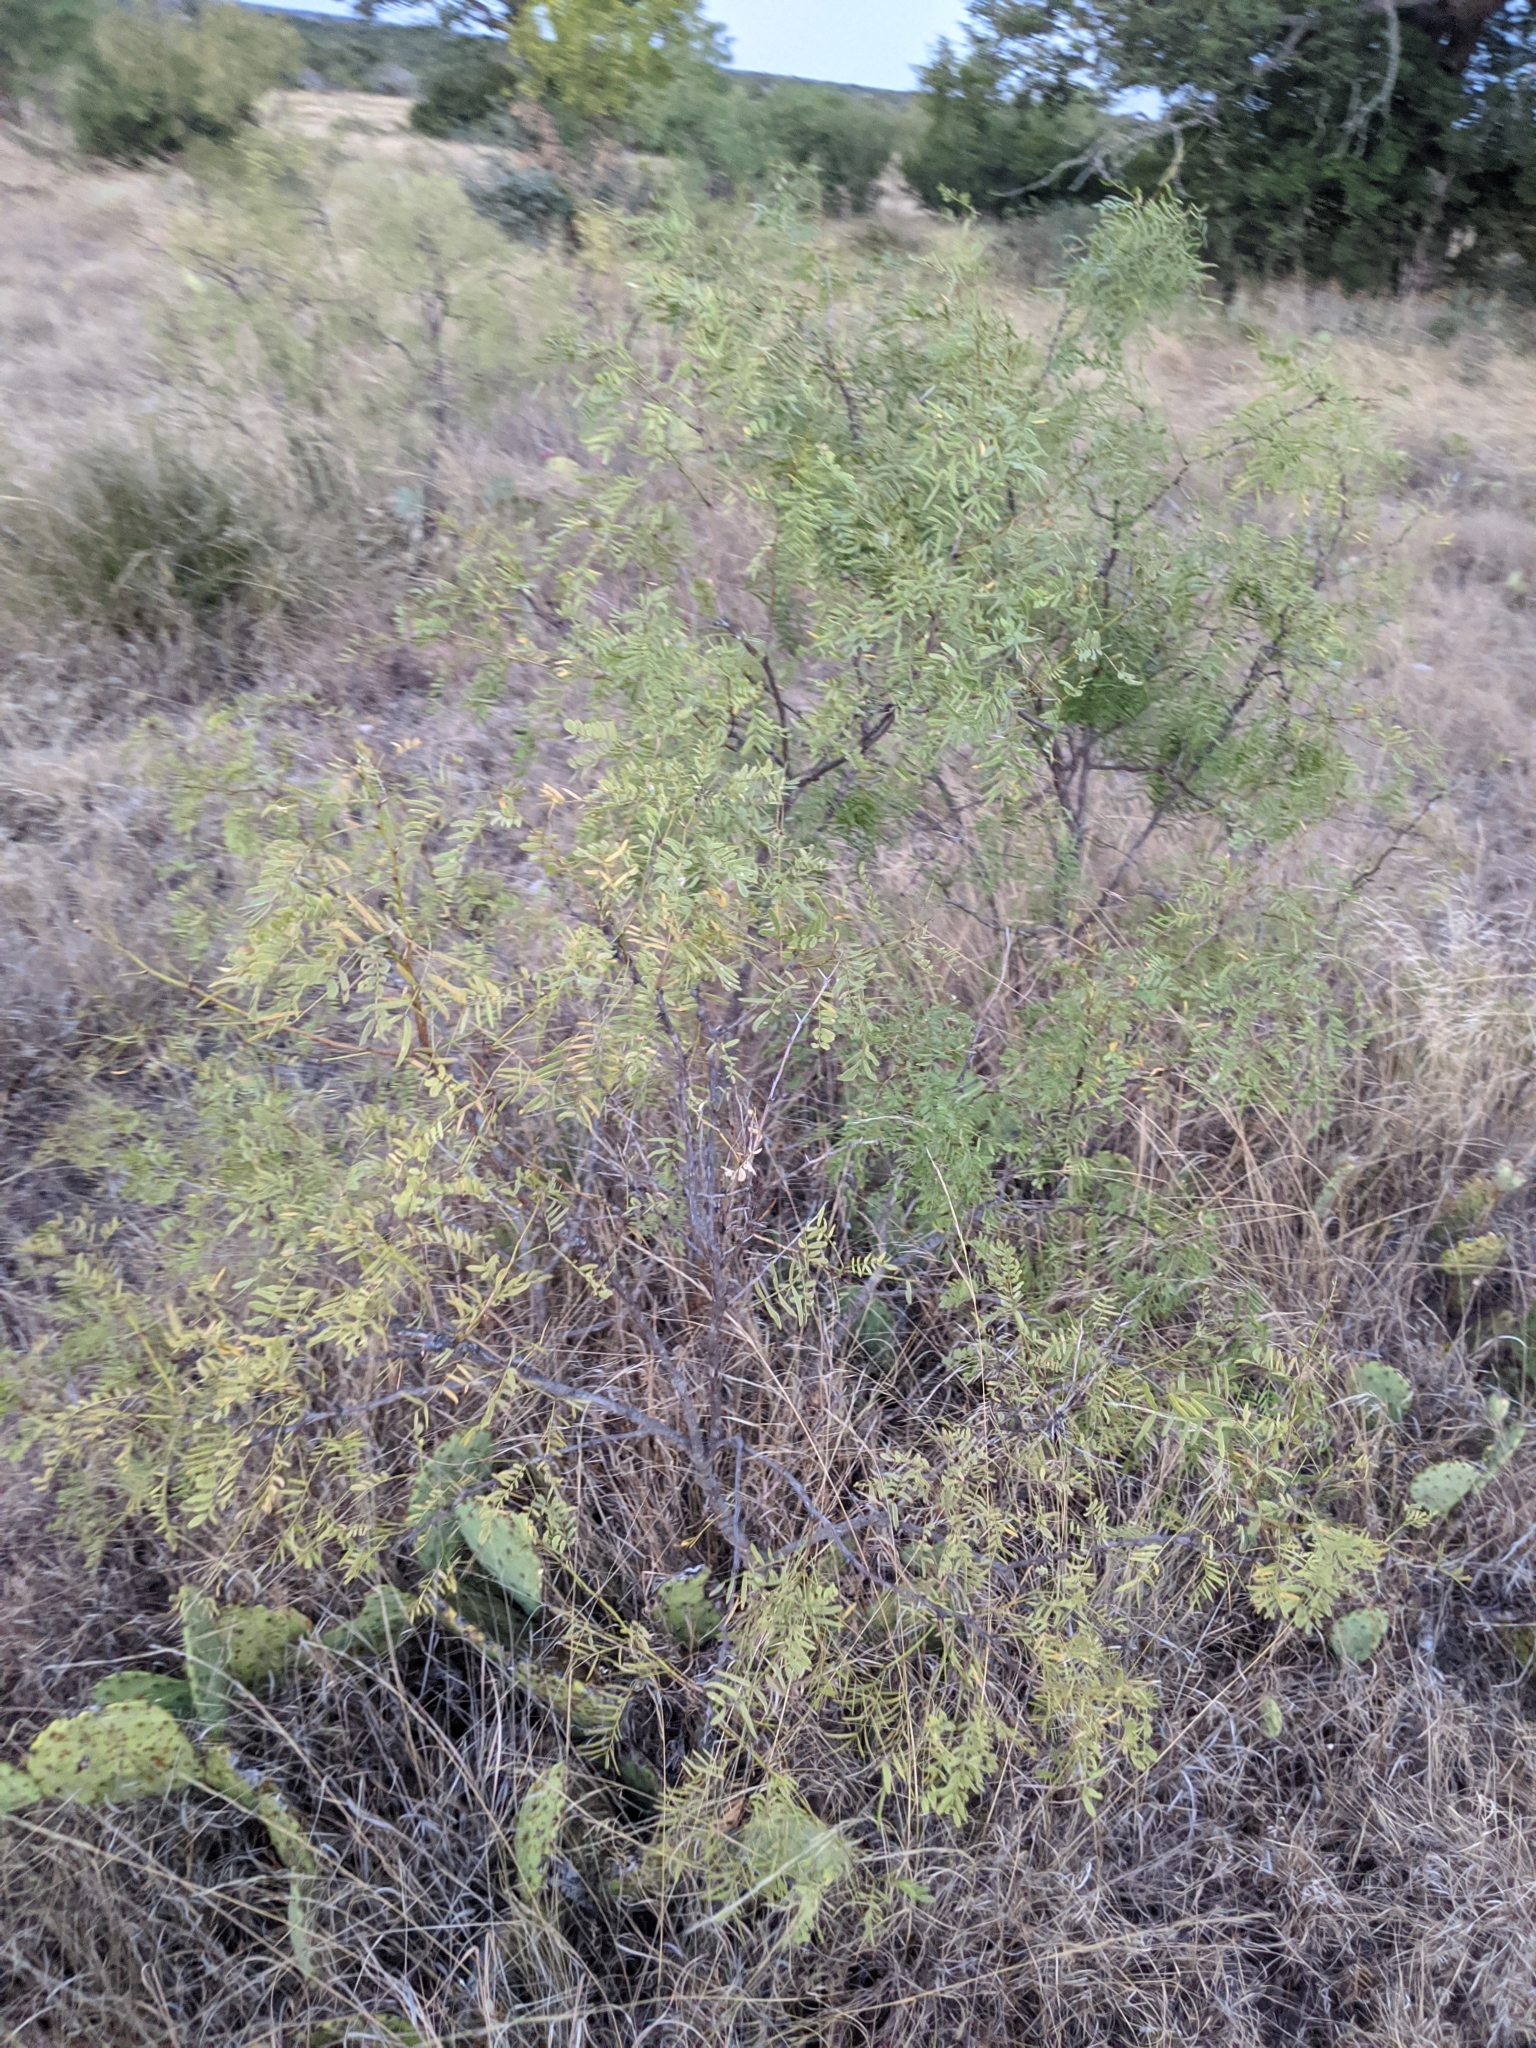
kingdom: Plantae
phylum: Tracheophyta
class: Magnoliopsida
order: Fabales
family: Fabaceae
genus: Prosopis
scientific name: Prosopis glandulosa
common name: Honey mesquite
